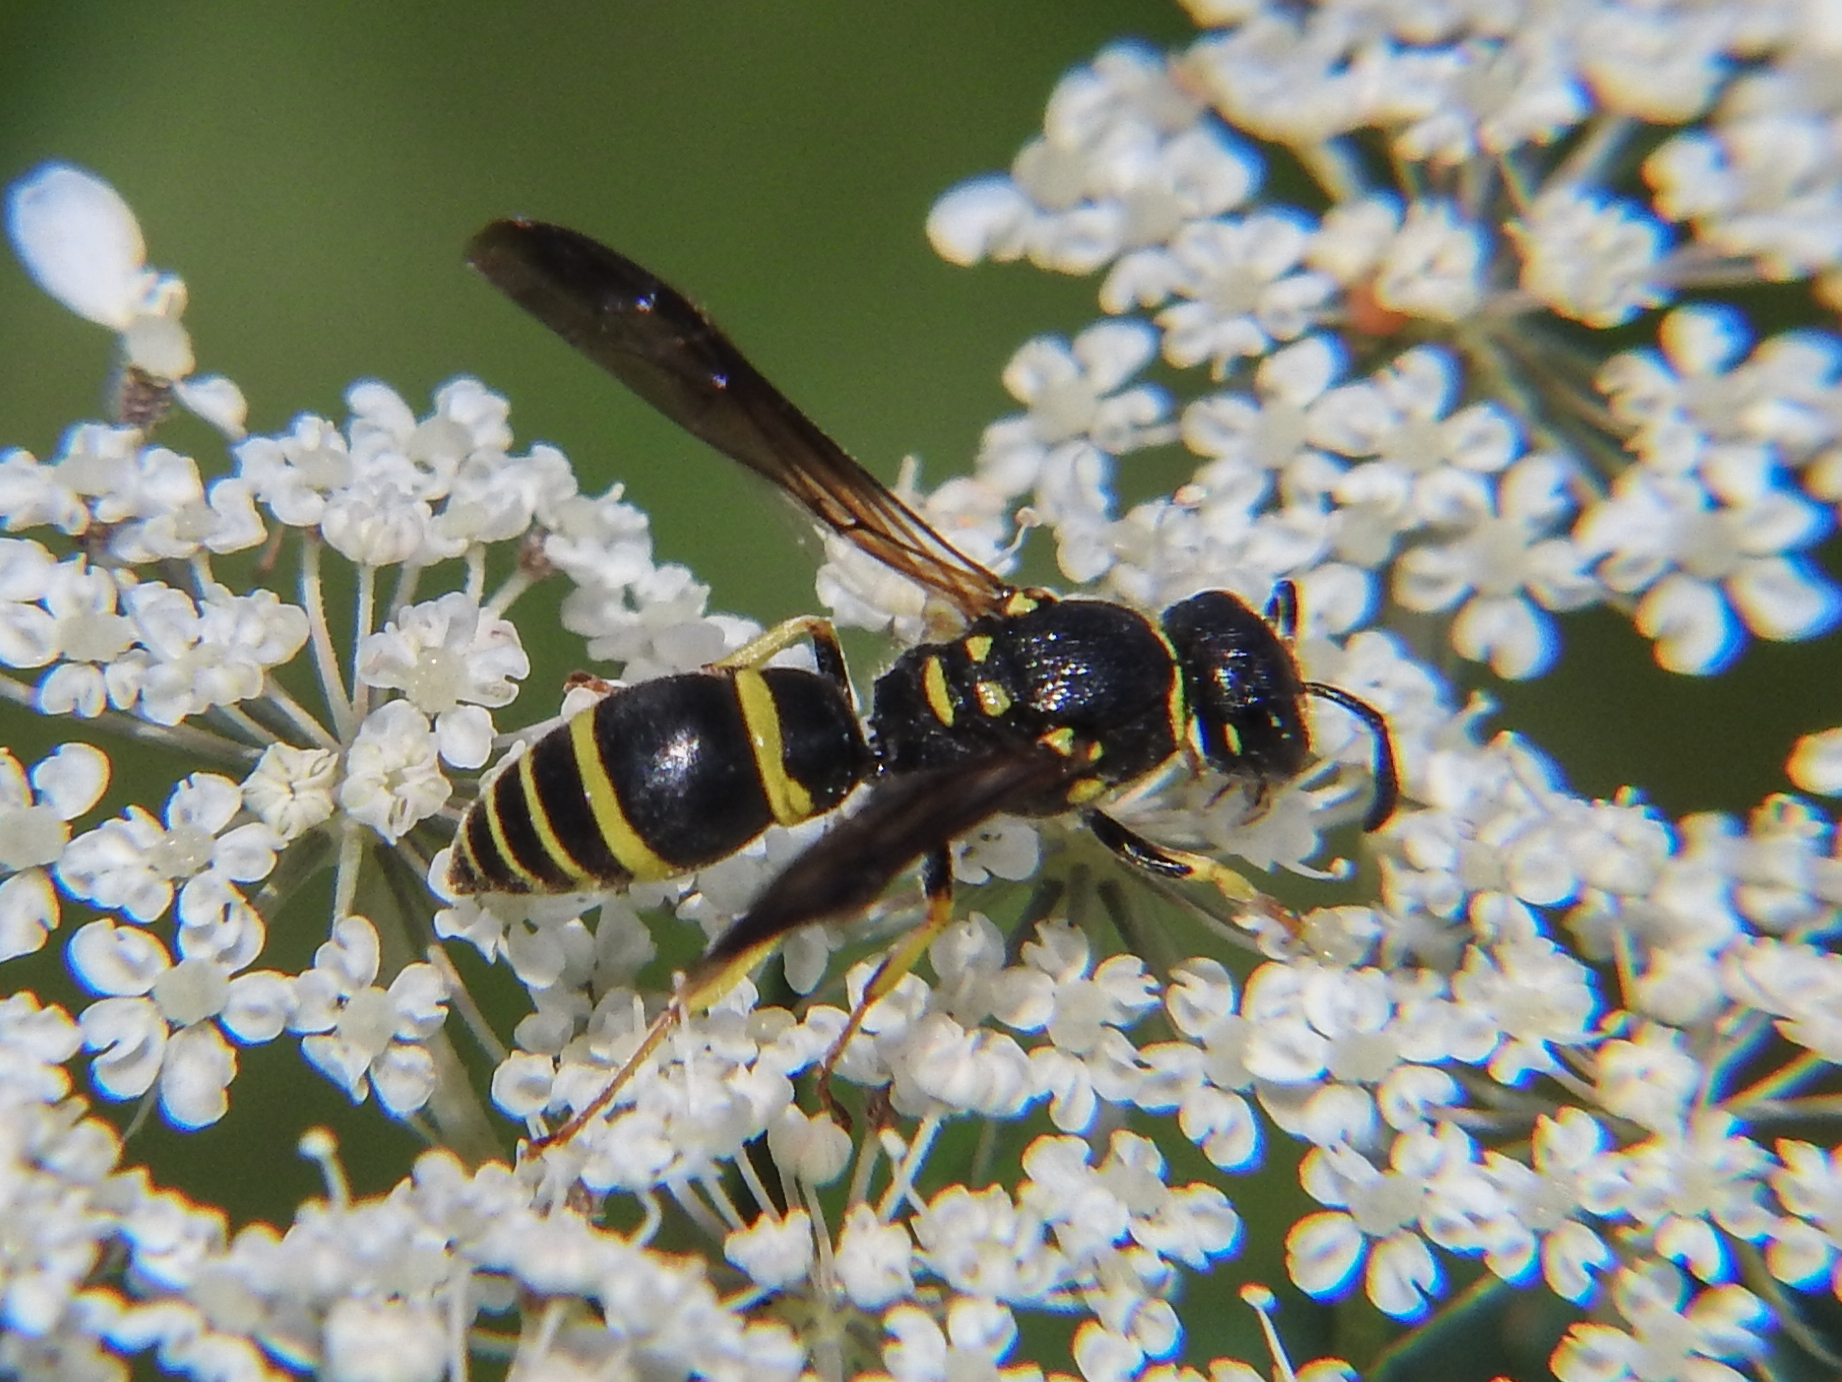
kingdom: Animalia
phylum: Arthropoda
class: Insecta
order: Hymenoptera
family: Vespidae
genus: Ancistrocerus
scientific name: Ancistrocerus adiabatus
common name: Bramble mason wasp
